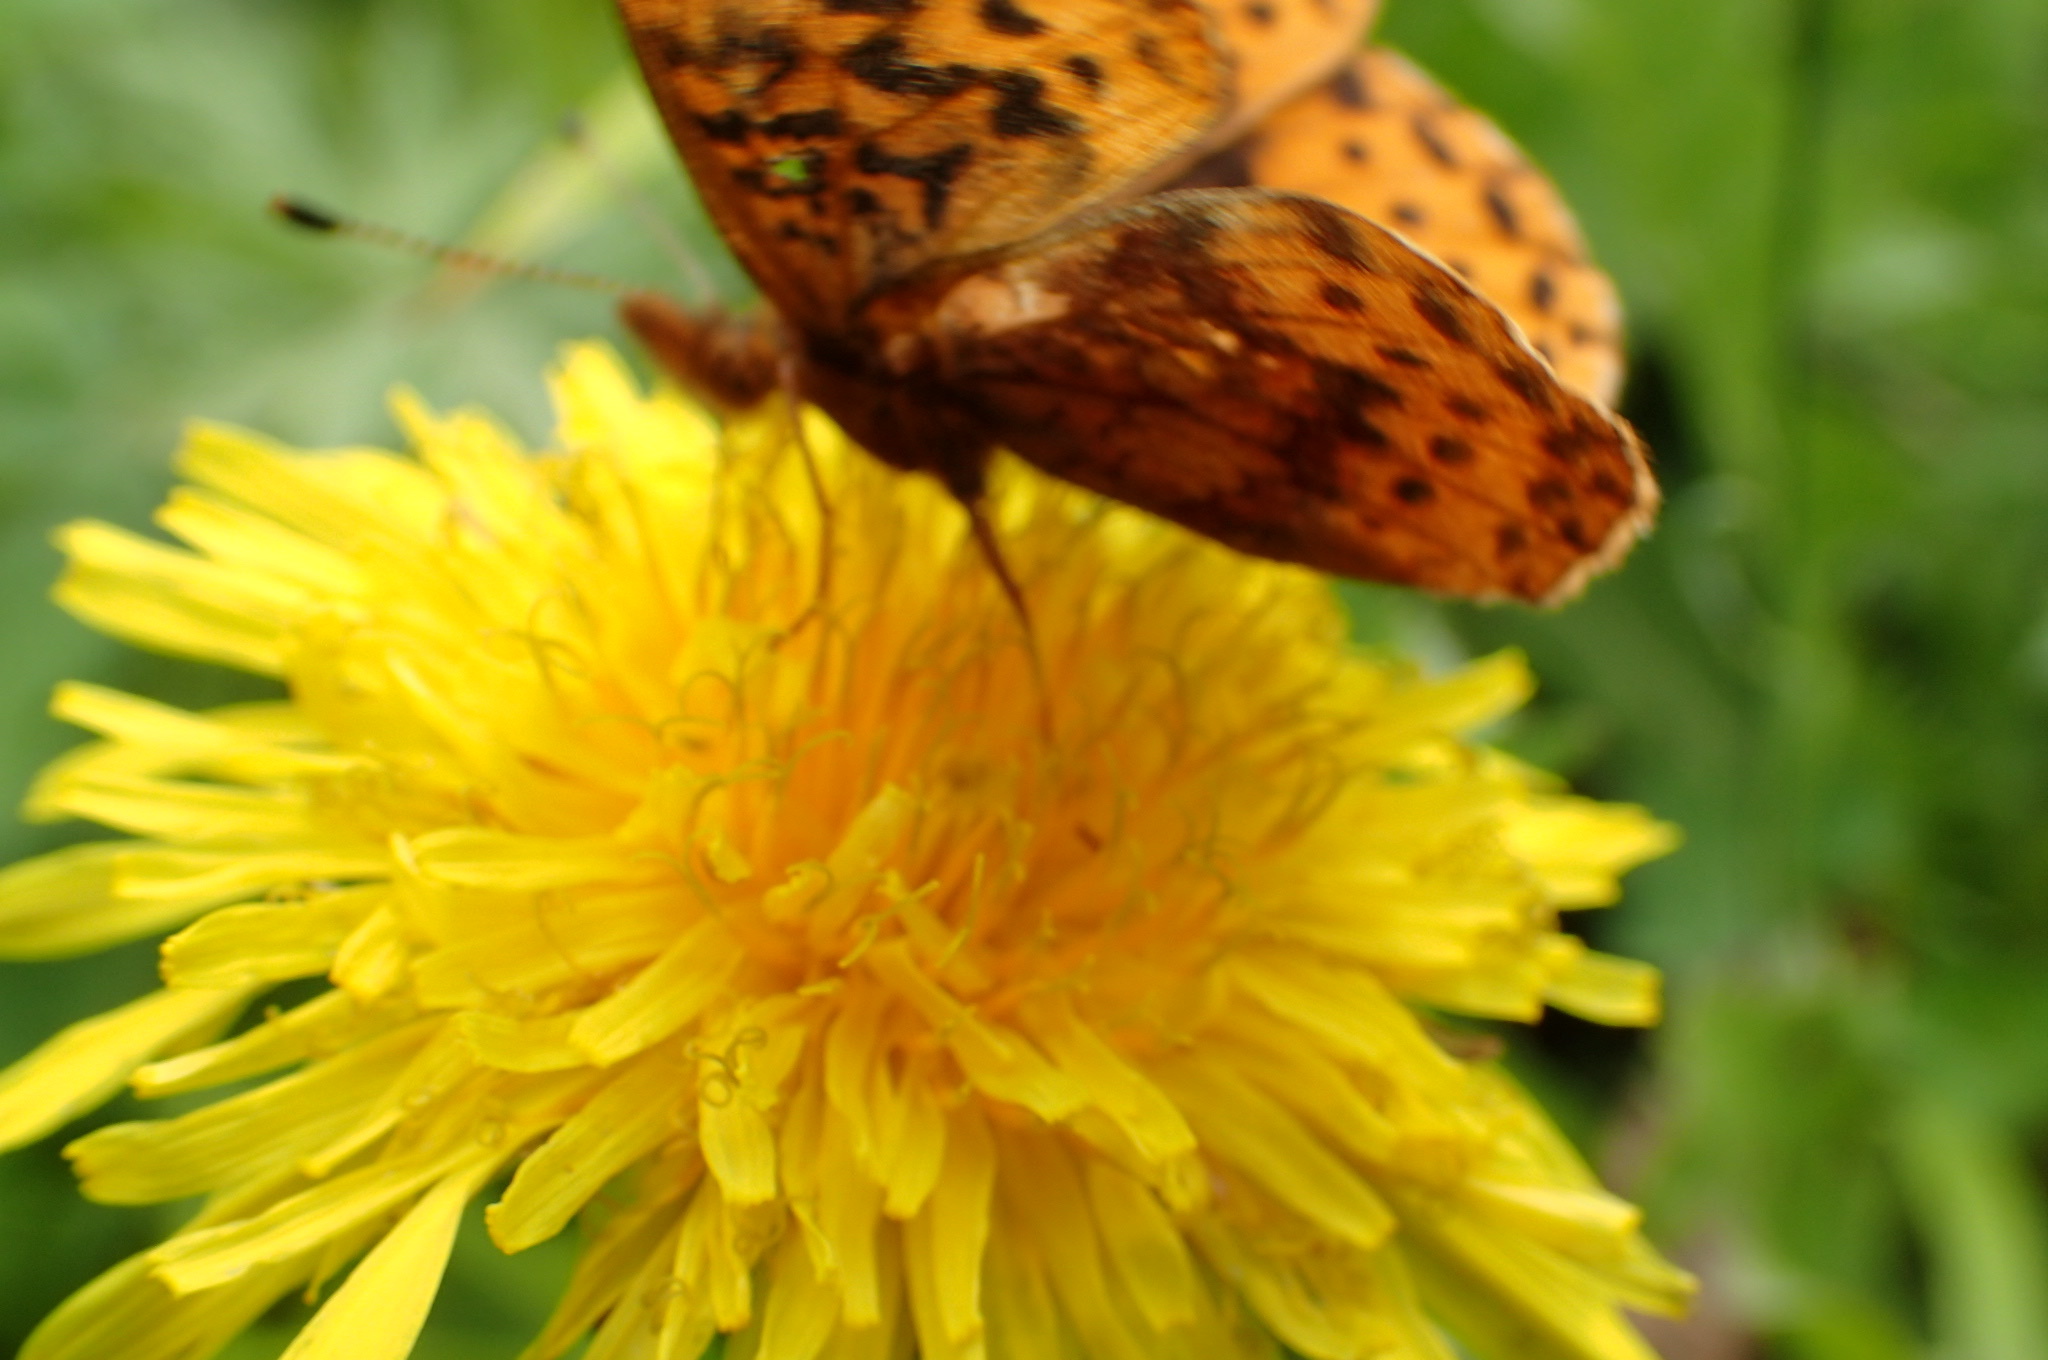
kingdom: Animalia
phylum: Arthropoda
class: Insecta
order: Lepidoptera
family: Nymphalidae
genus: Clossiana
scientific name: Clossiana toddi
